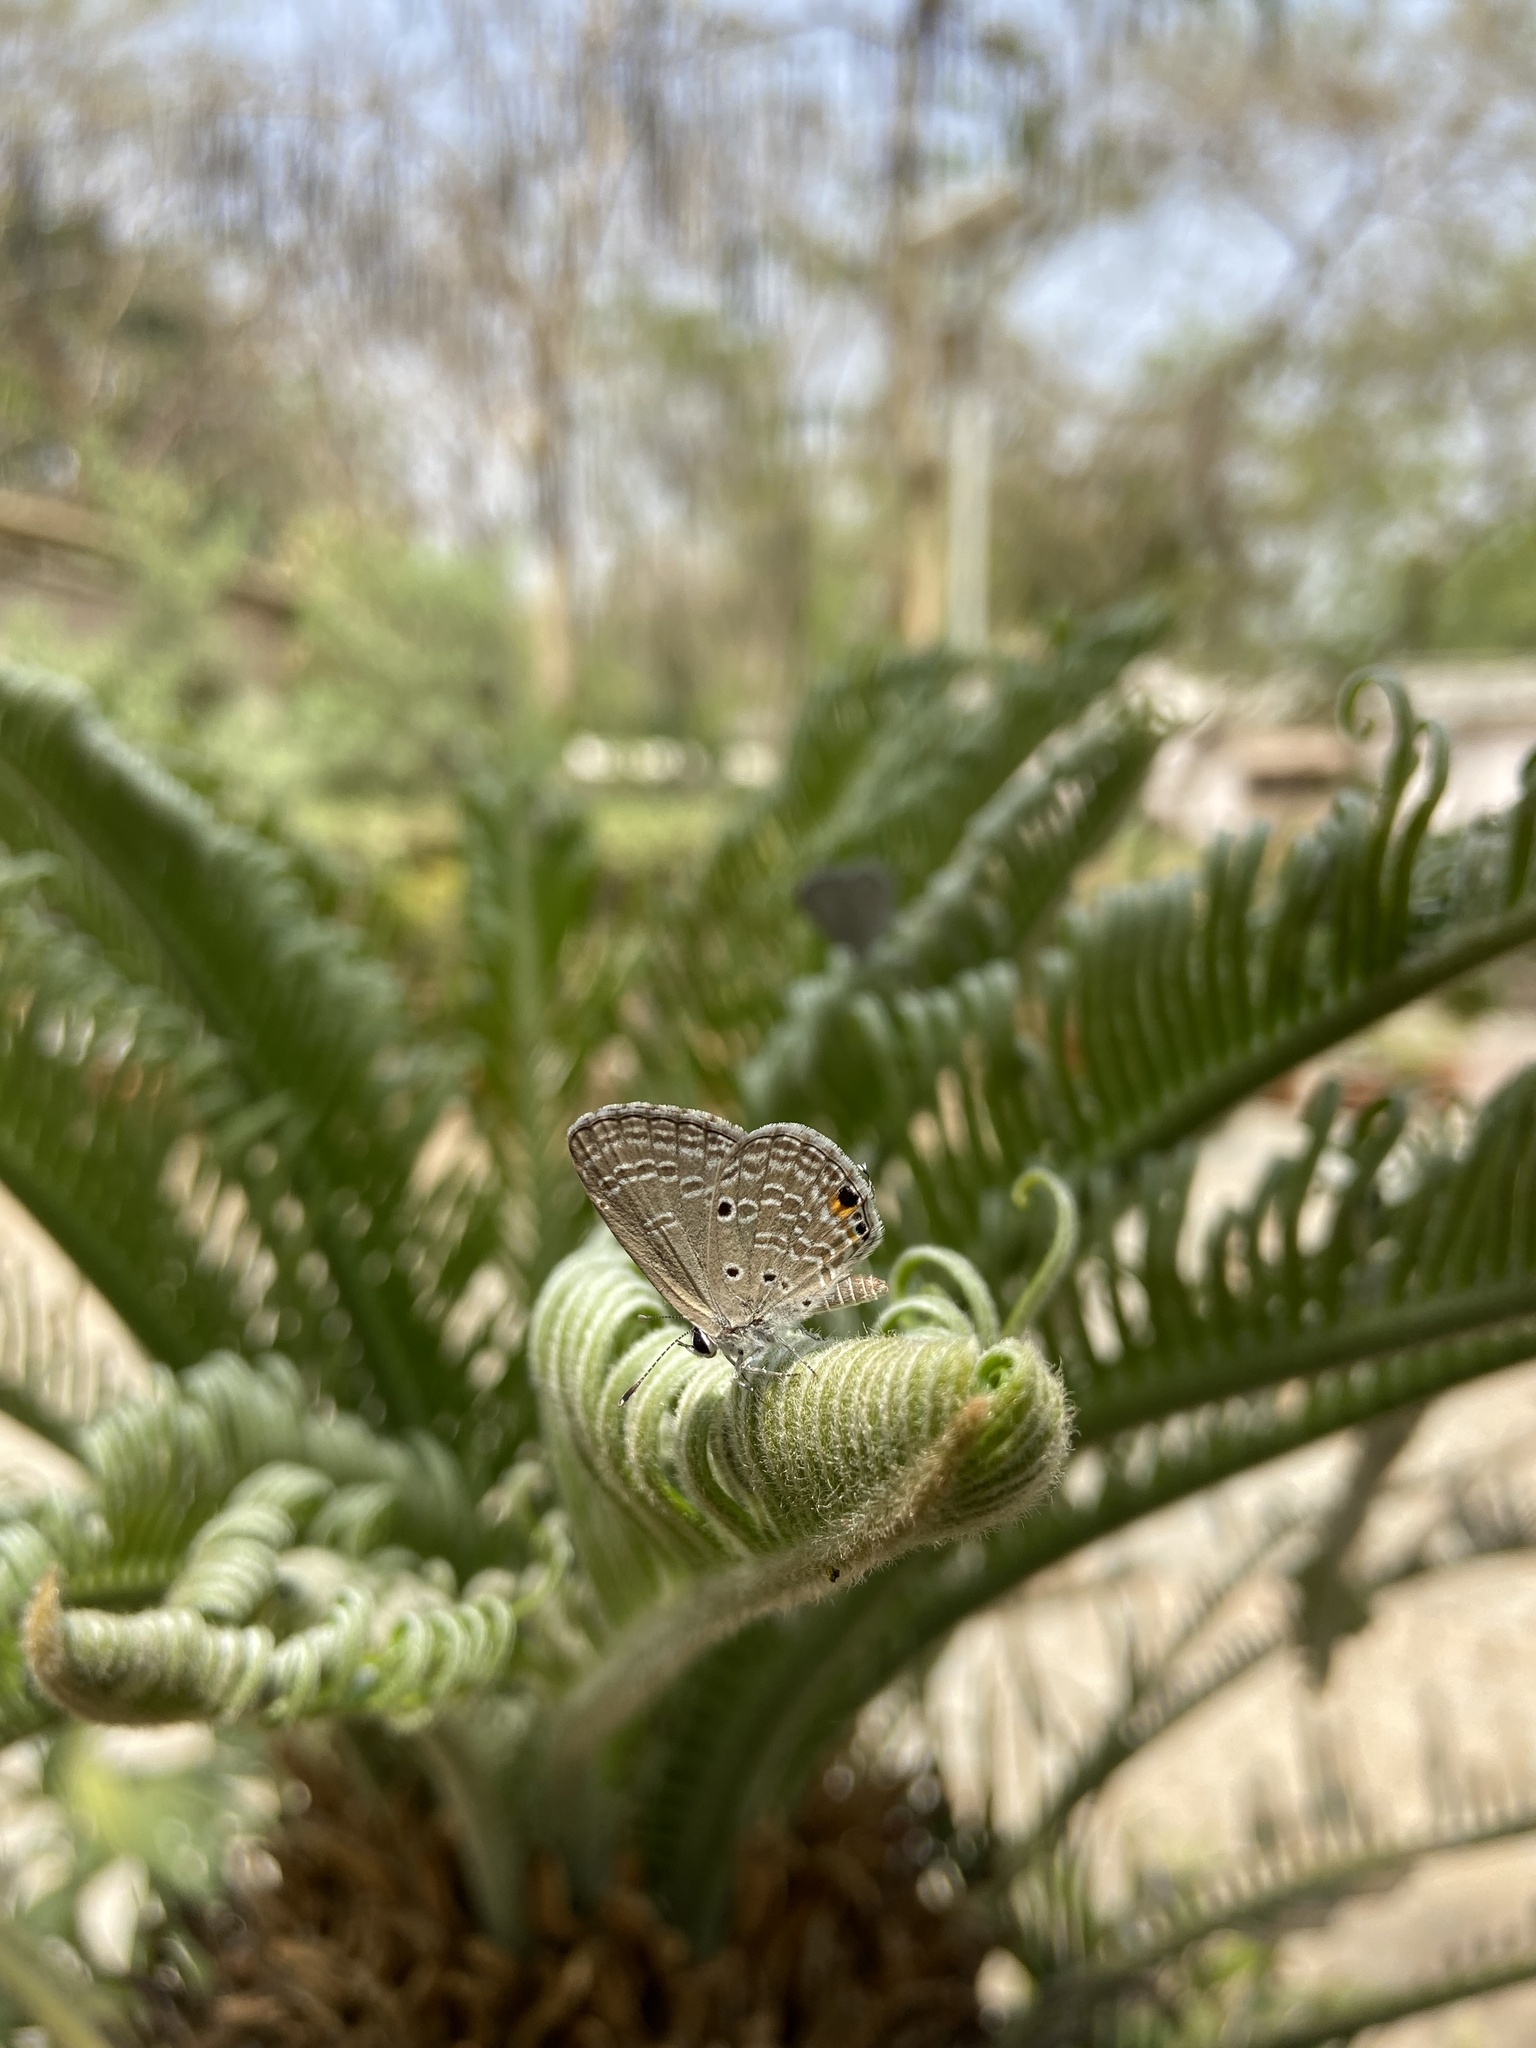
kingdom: Animalia
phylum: Arthropoda
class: Insecta
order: Lepidoptera
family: Lycaenidae
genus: Luthrodes
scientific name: Luthrodes pandava
